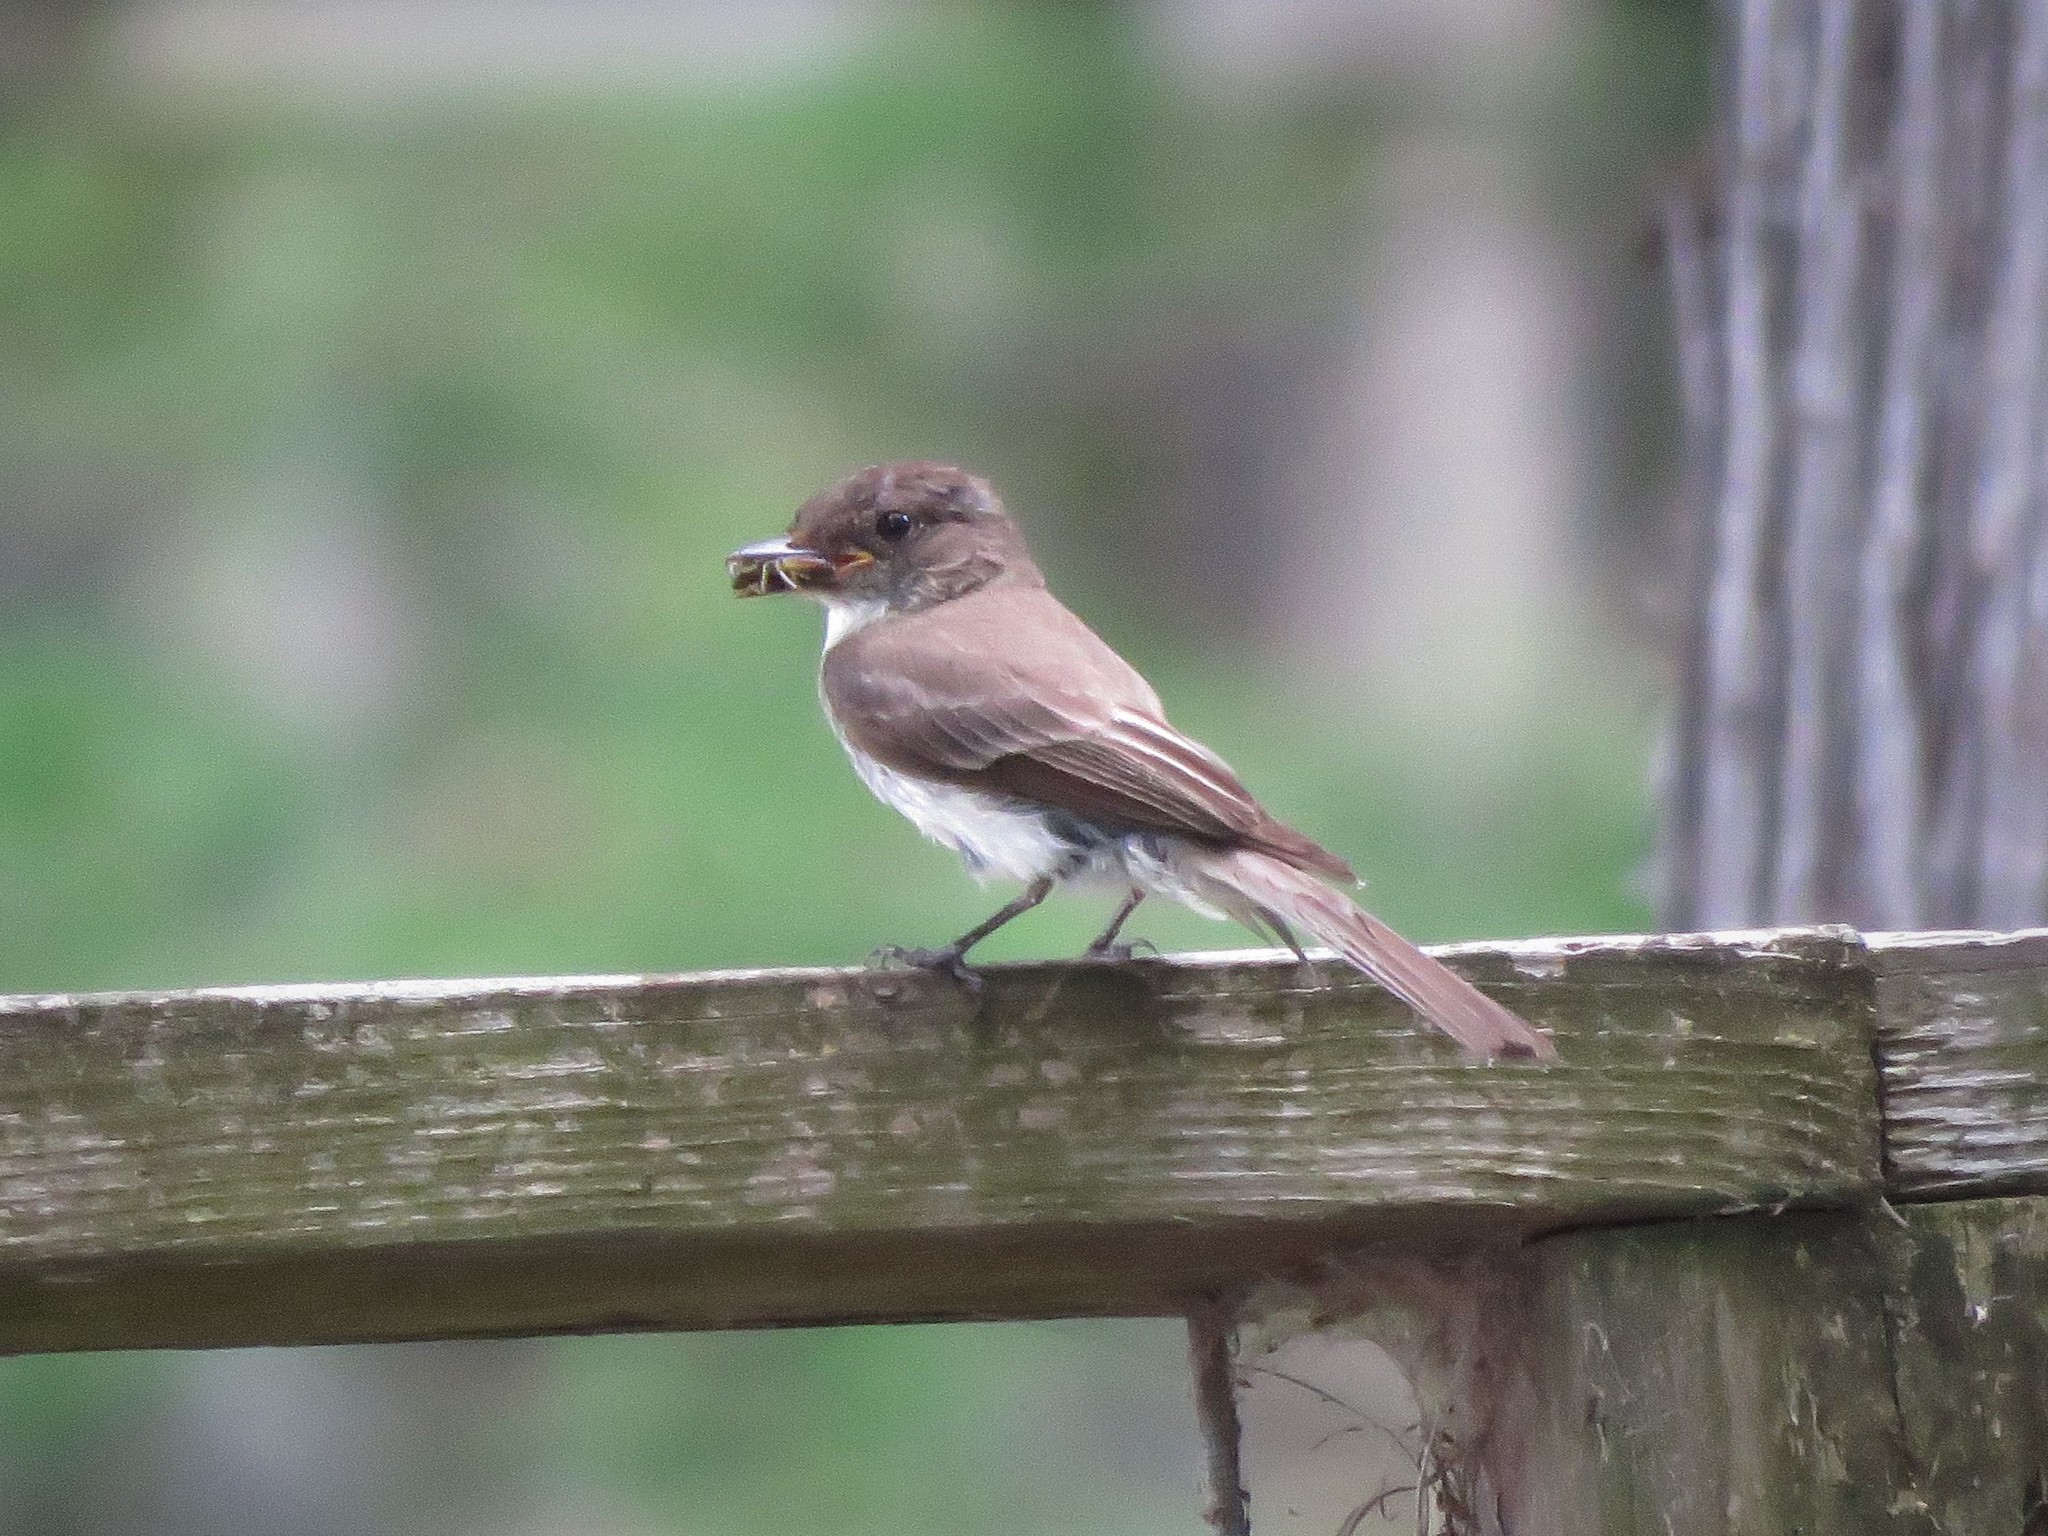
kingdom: Animalia
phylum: Chordata
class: Aves
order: Passeriformes
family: Tyrannidae
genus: Sayornis
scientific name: Sayornis phoebe
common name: Eastern phoebe
